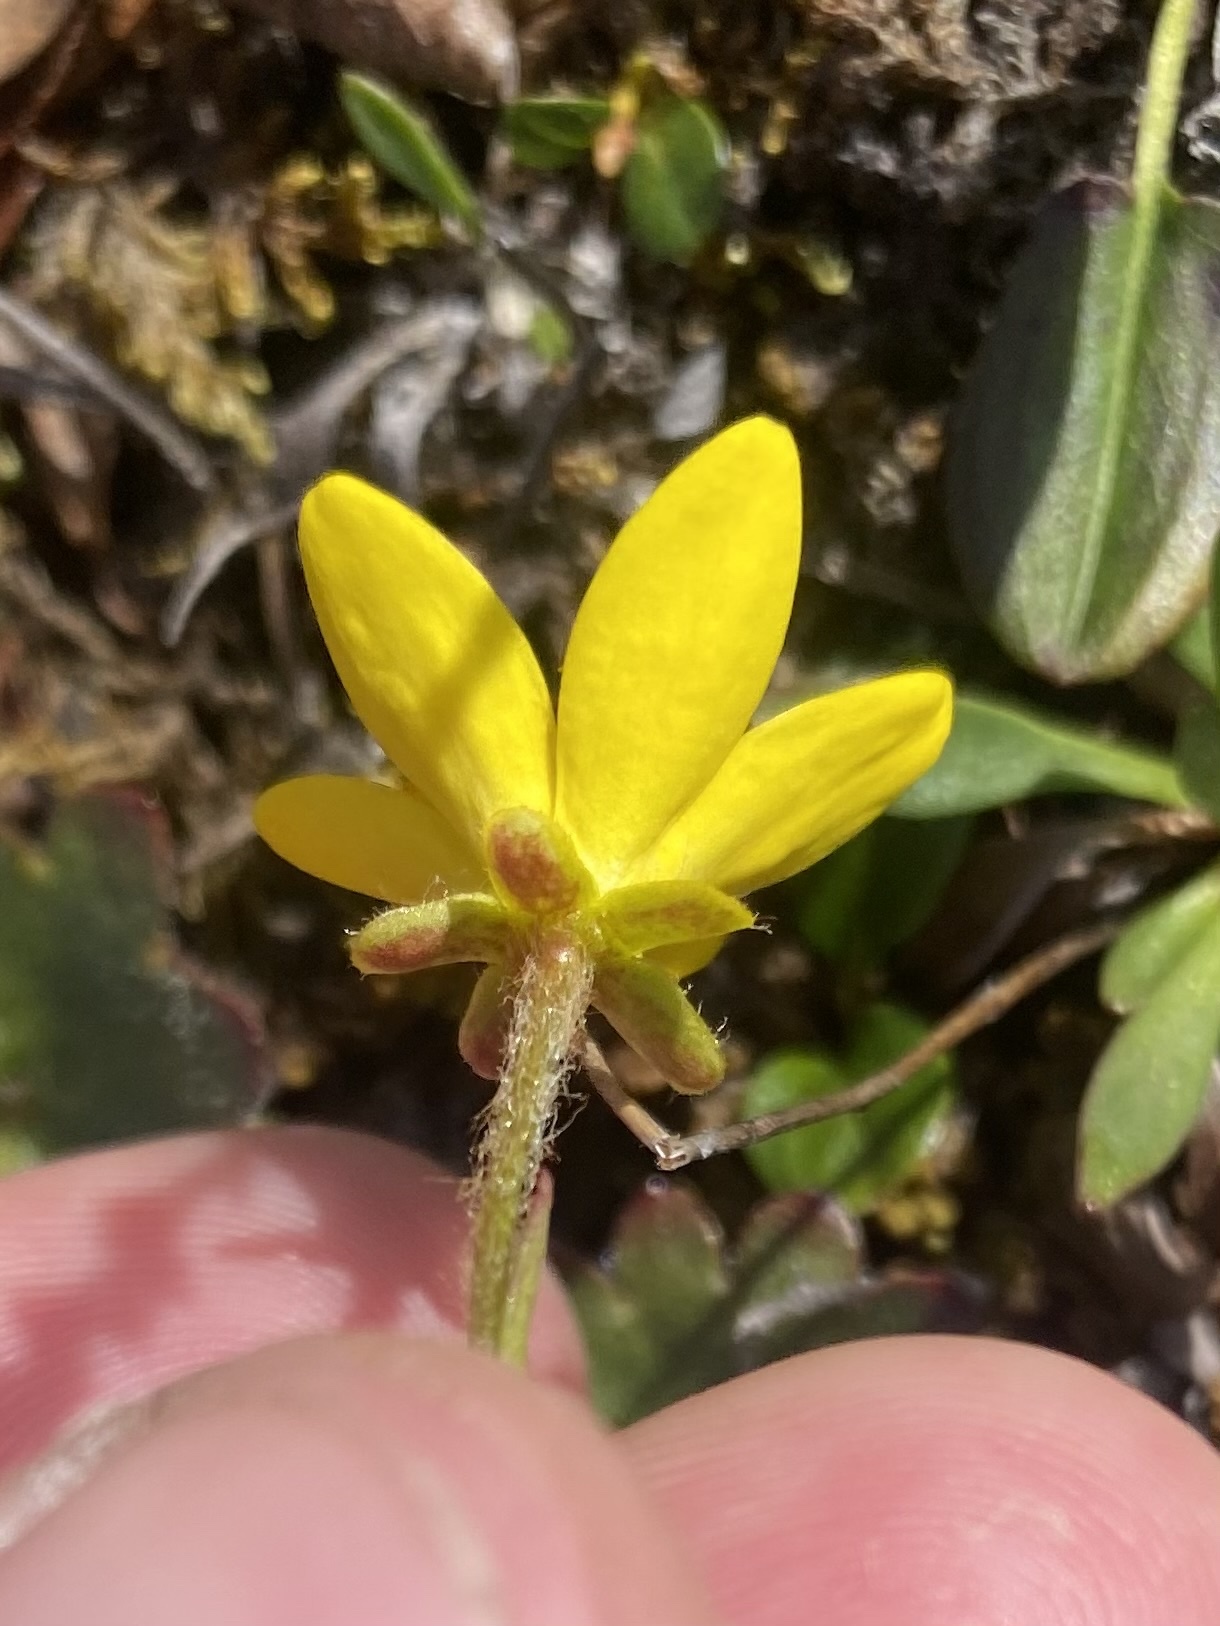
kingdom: Plantae
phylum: Tracheophyta
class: Magnoliopsida
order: Saxifragales
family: Saxifragaceae
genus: Saxifraga
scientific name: Saxifraga hirculus
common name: Yellow marsh saxifrage
